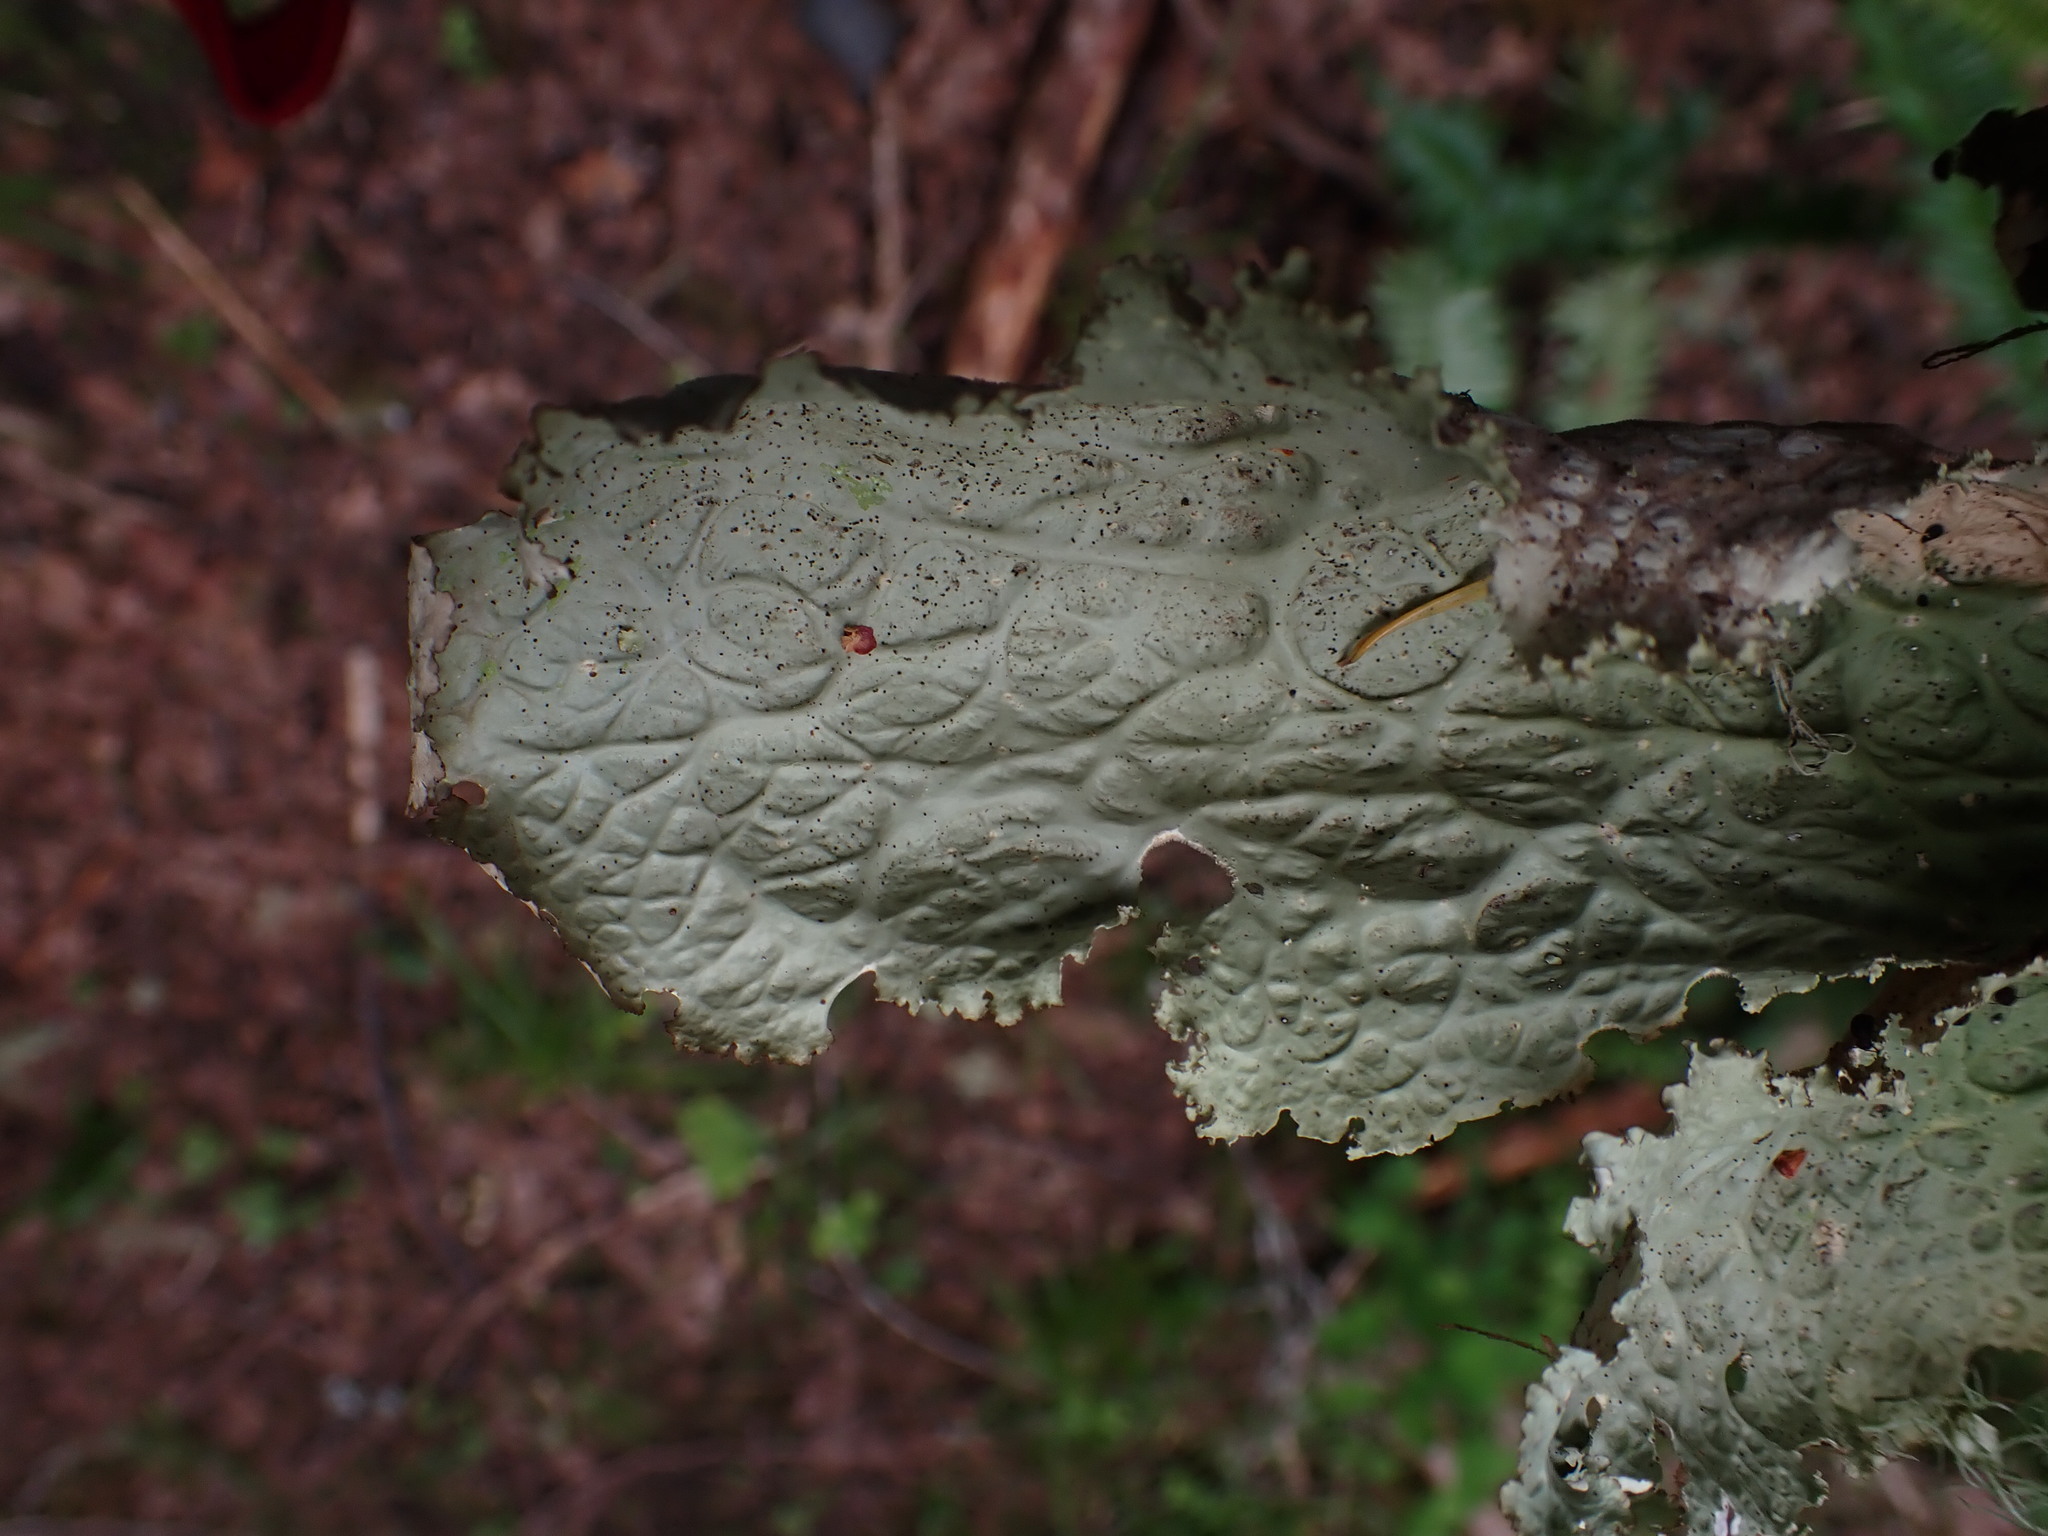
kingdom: Fungi
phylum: Ascomycota
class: Lecanoromycetes
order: Peltigerales
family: Lobariaceae
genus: Lobaria
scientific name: Lobaria oregana
